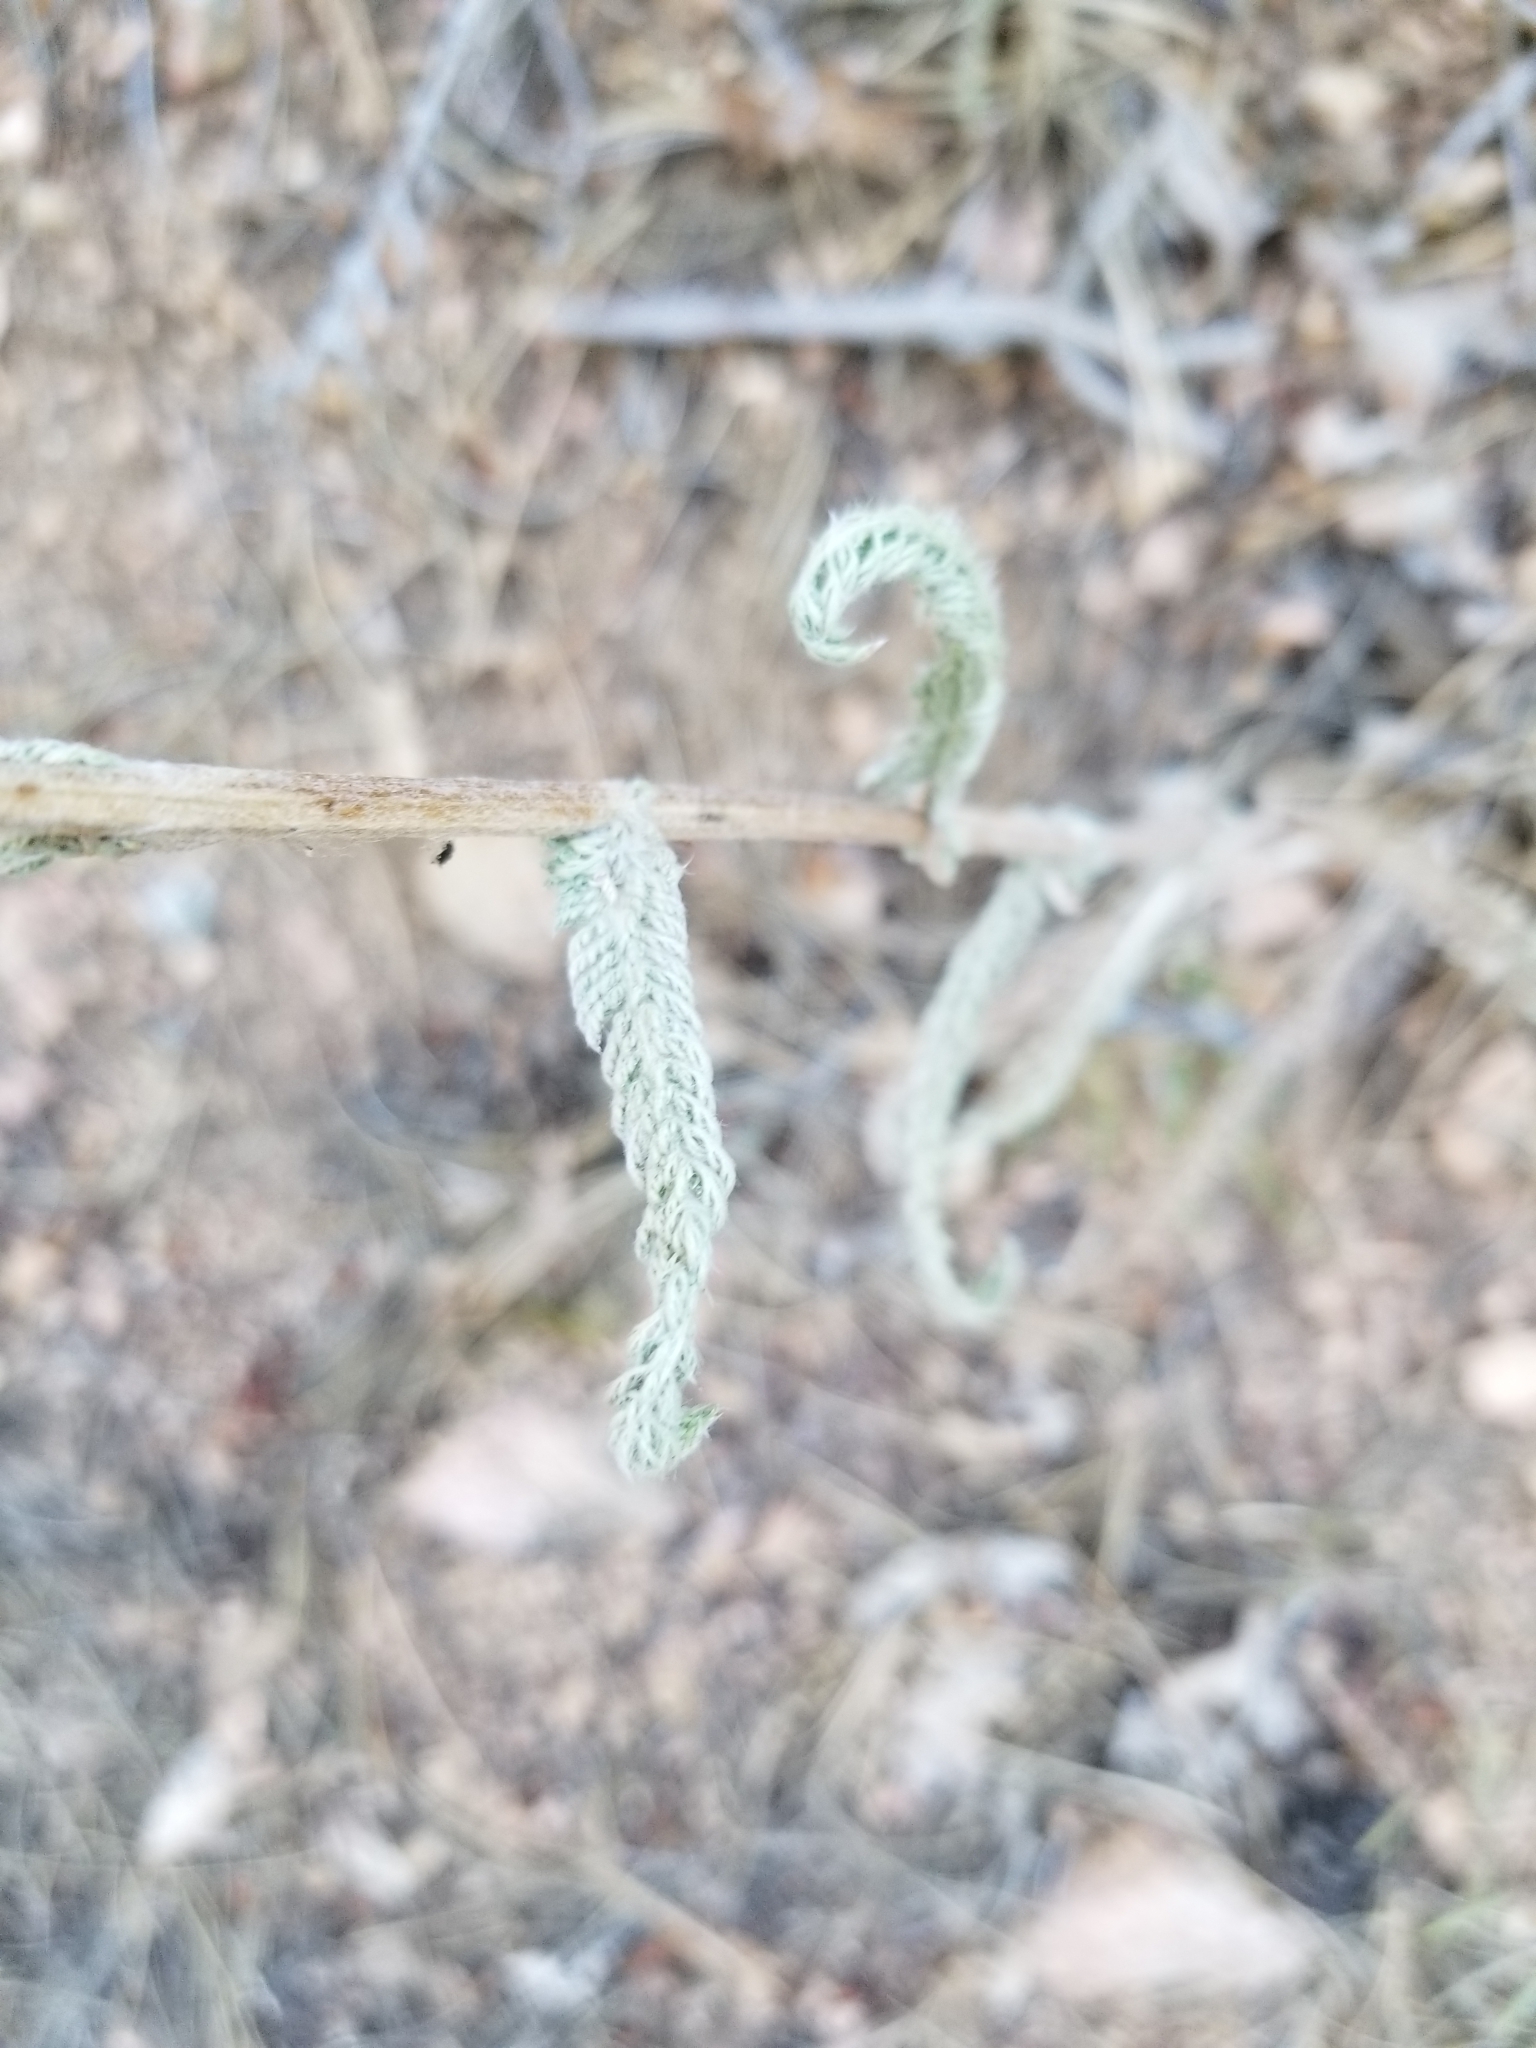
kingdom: Plantae
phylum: Tracheophyta
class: Magnoliopsida
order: Asterales
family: Asteraceae
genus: Achillea
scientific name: Achillea millefolium
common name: Yarrow
